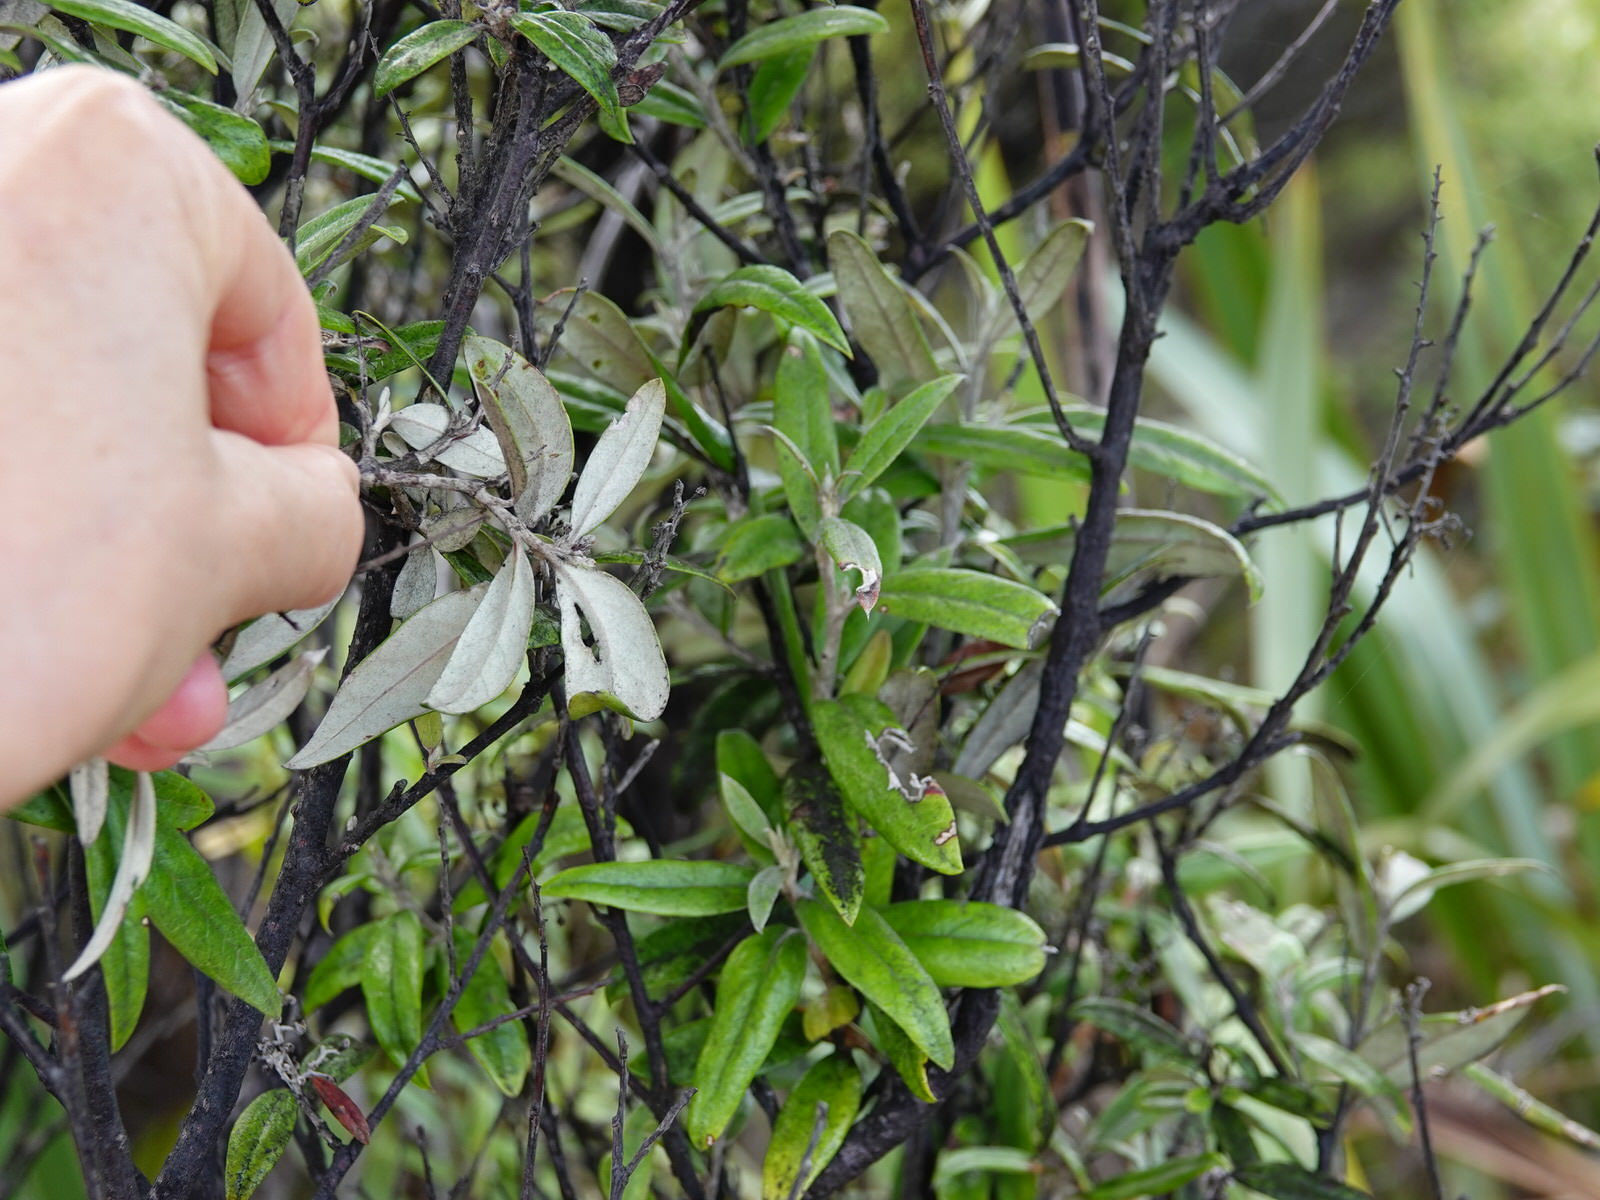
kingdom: Plantae
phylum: Tracheophyta
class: Magnoliopsida
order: Asterales
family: Argophyllaceae
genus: Corokia
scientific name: Corokia buddleioides
